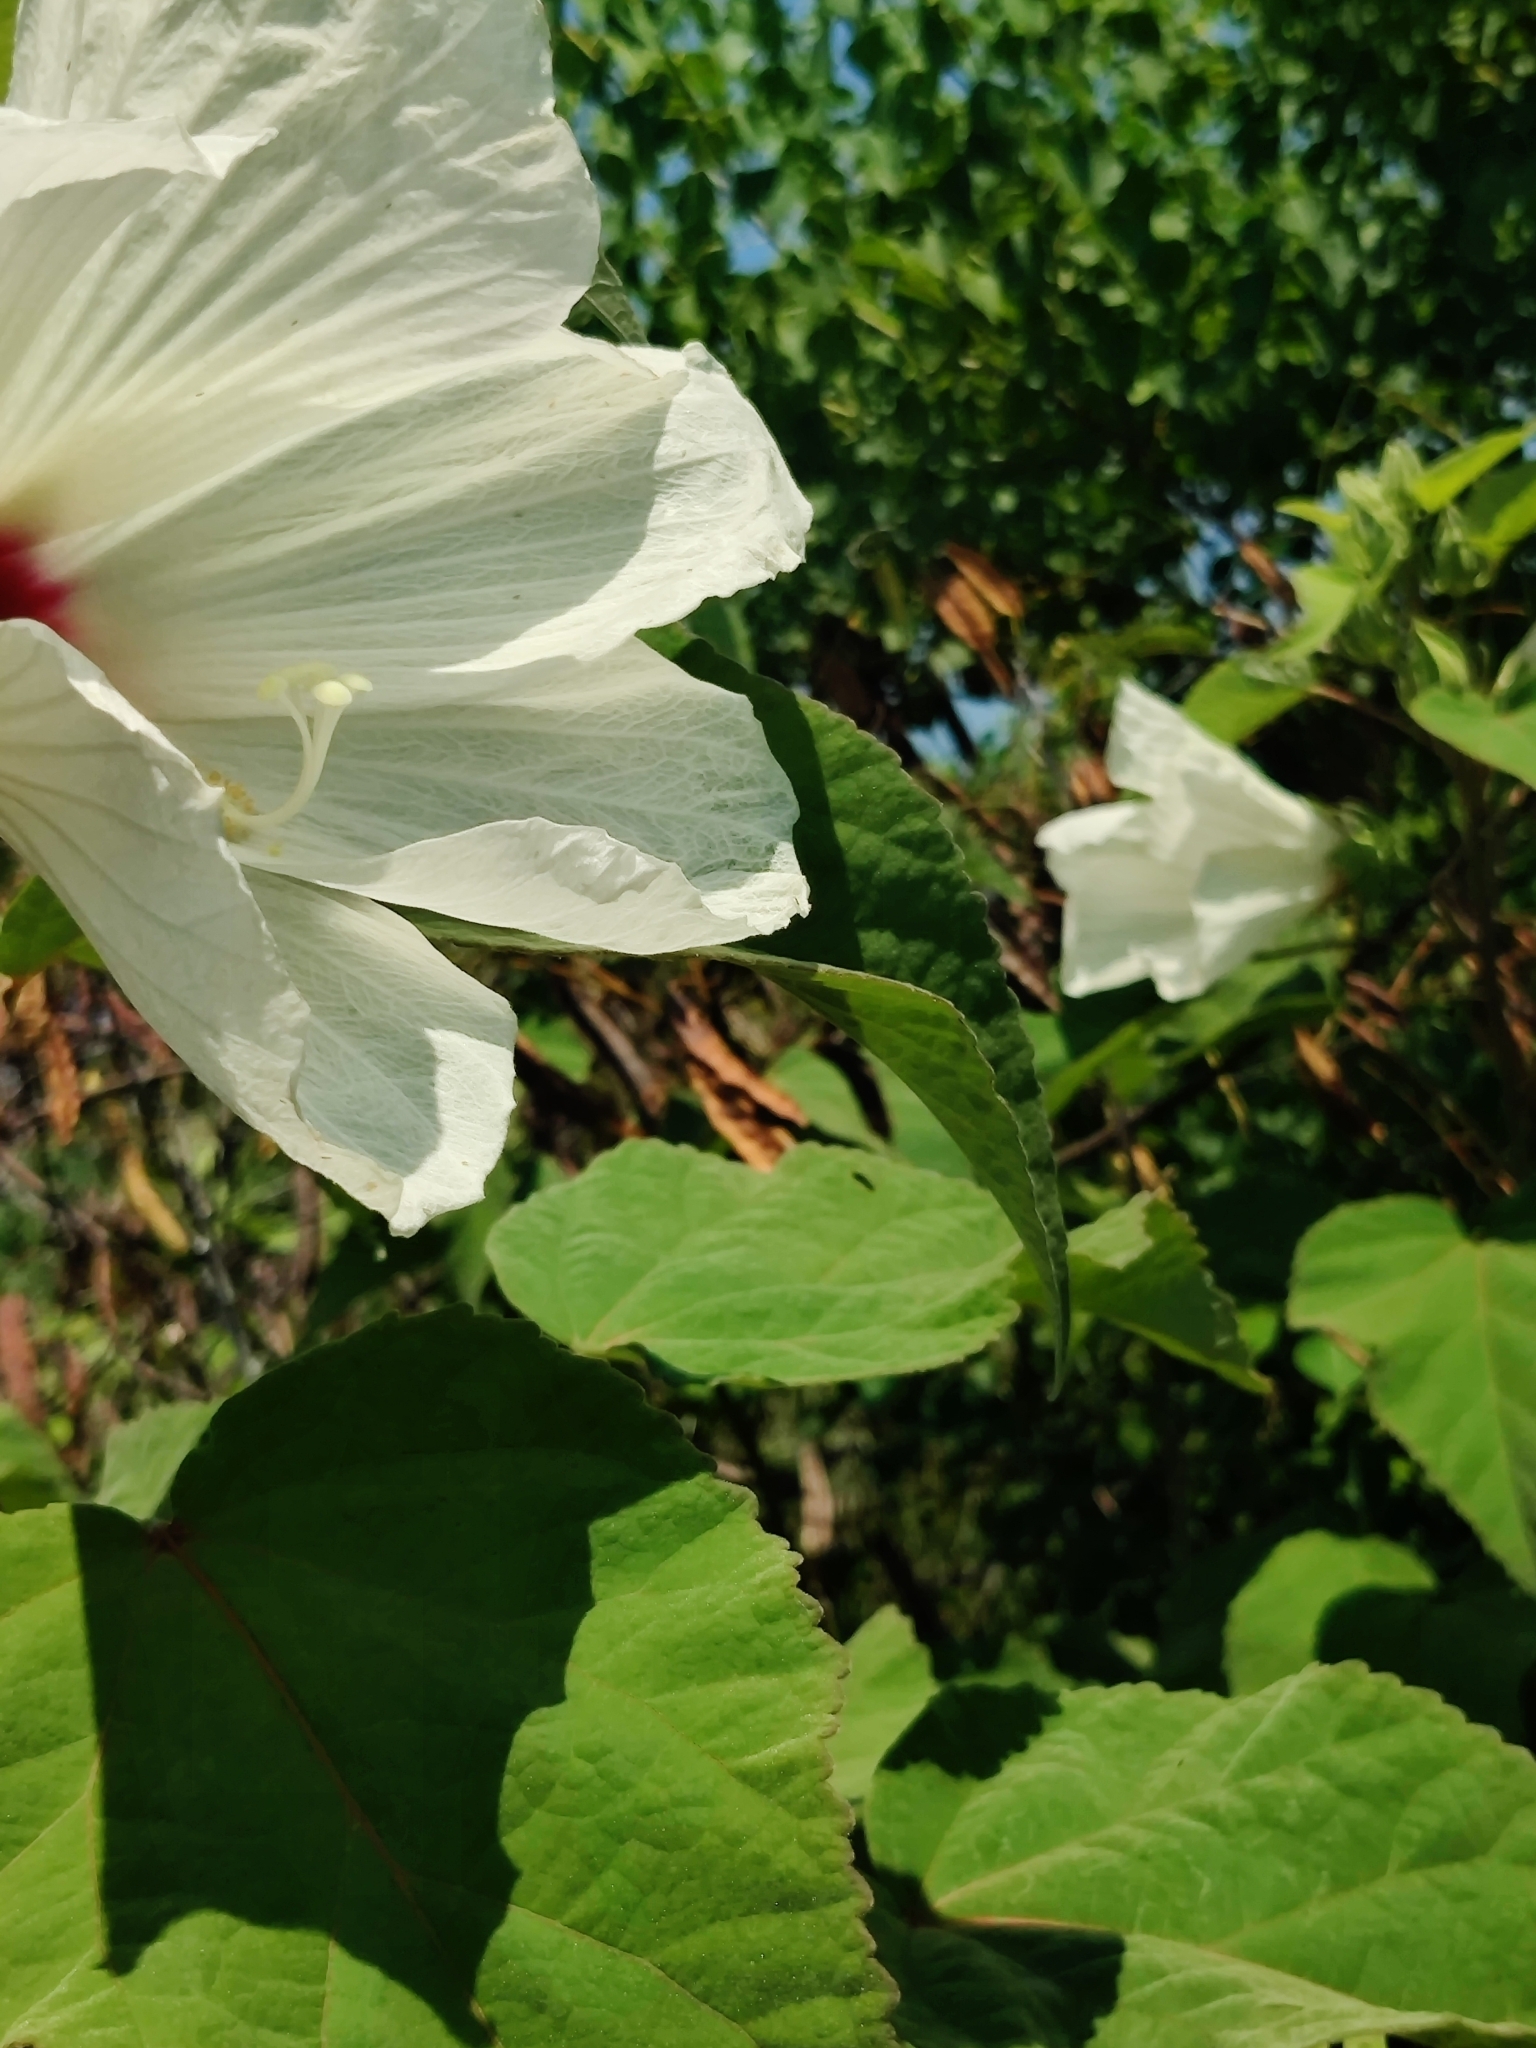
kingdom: Plantae
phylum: Tracheophyta
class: Magnoliopsida
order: Malvales
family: Malvaceae
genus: Hibiscus
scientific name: Hibiscus moscheutos
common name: Common rose-mallow
